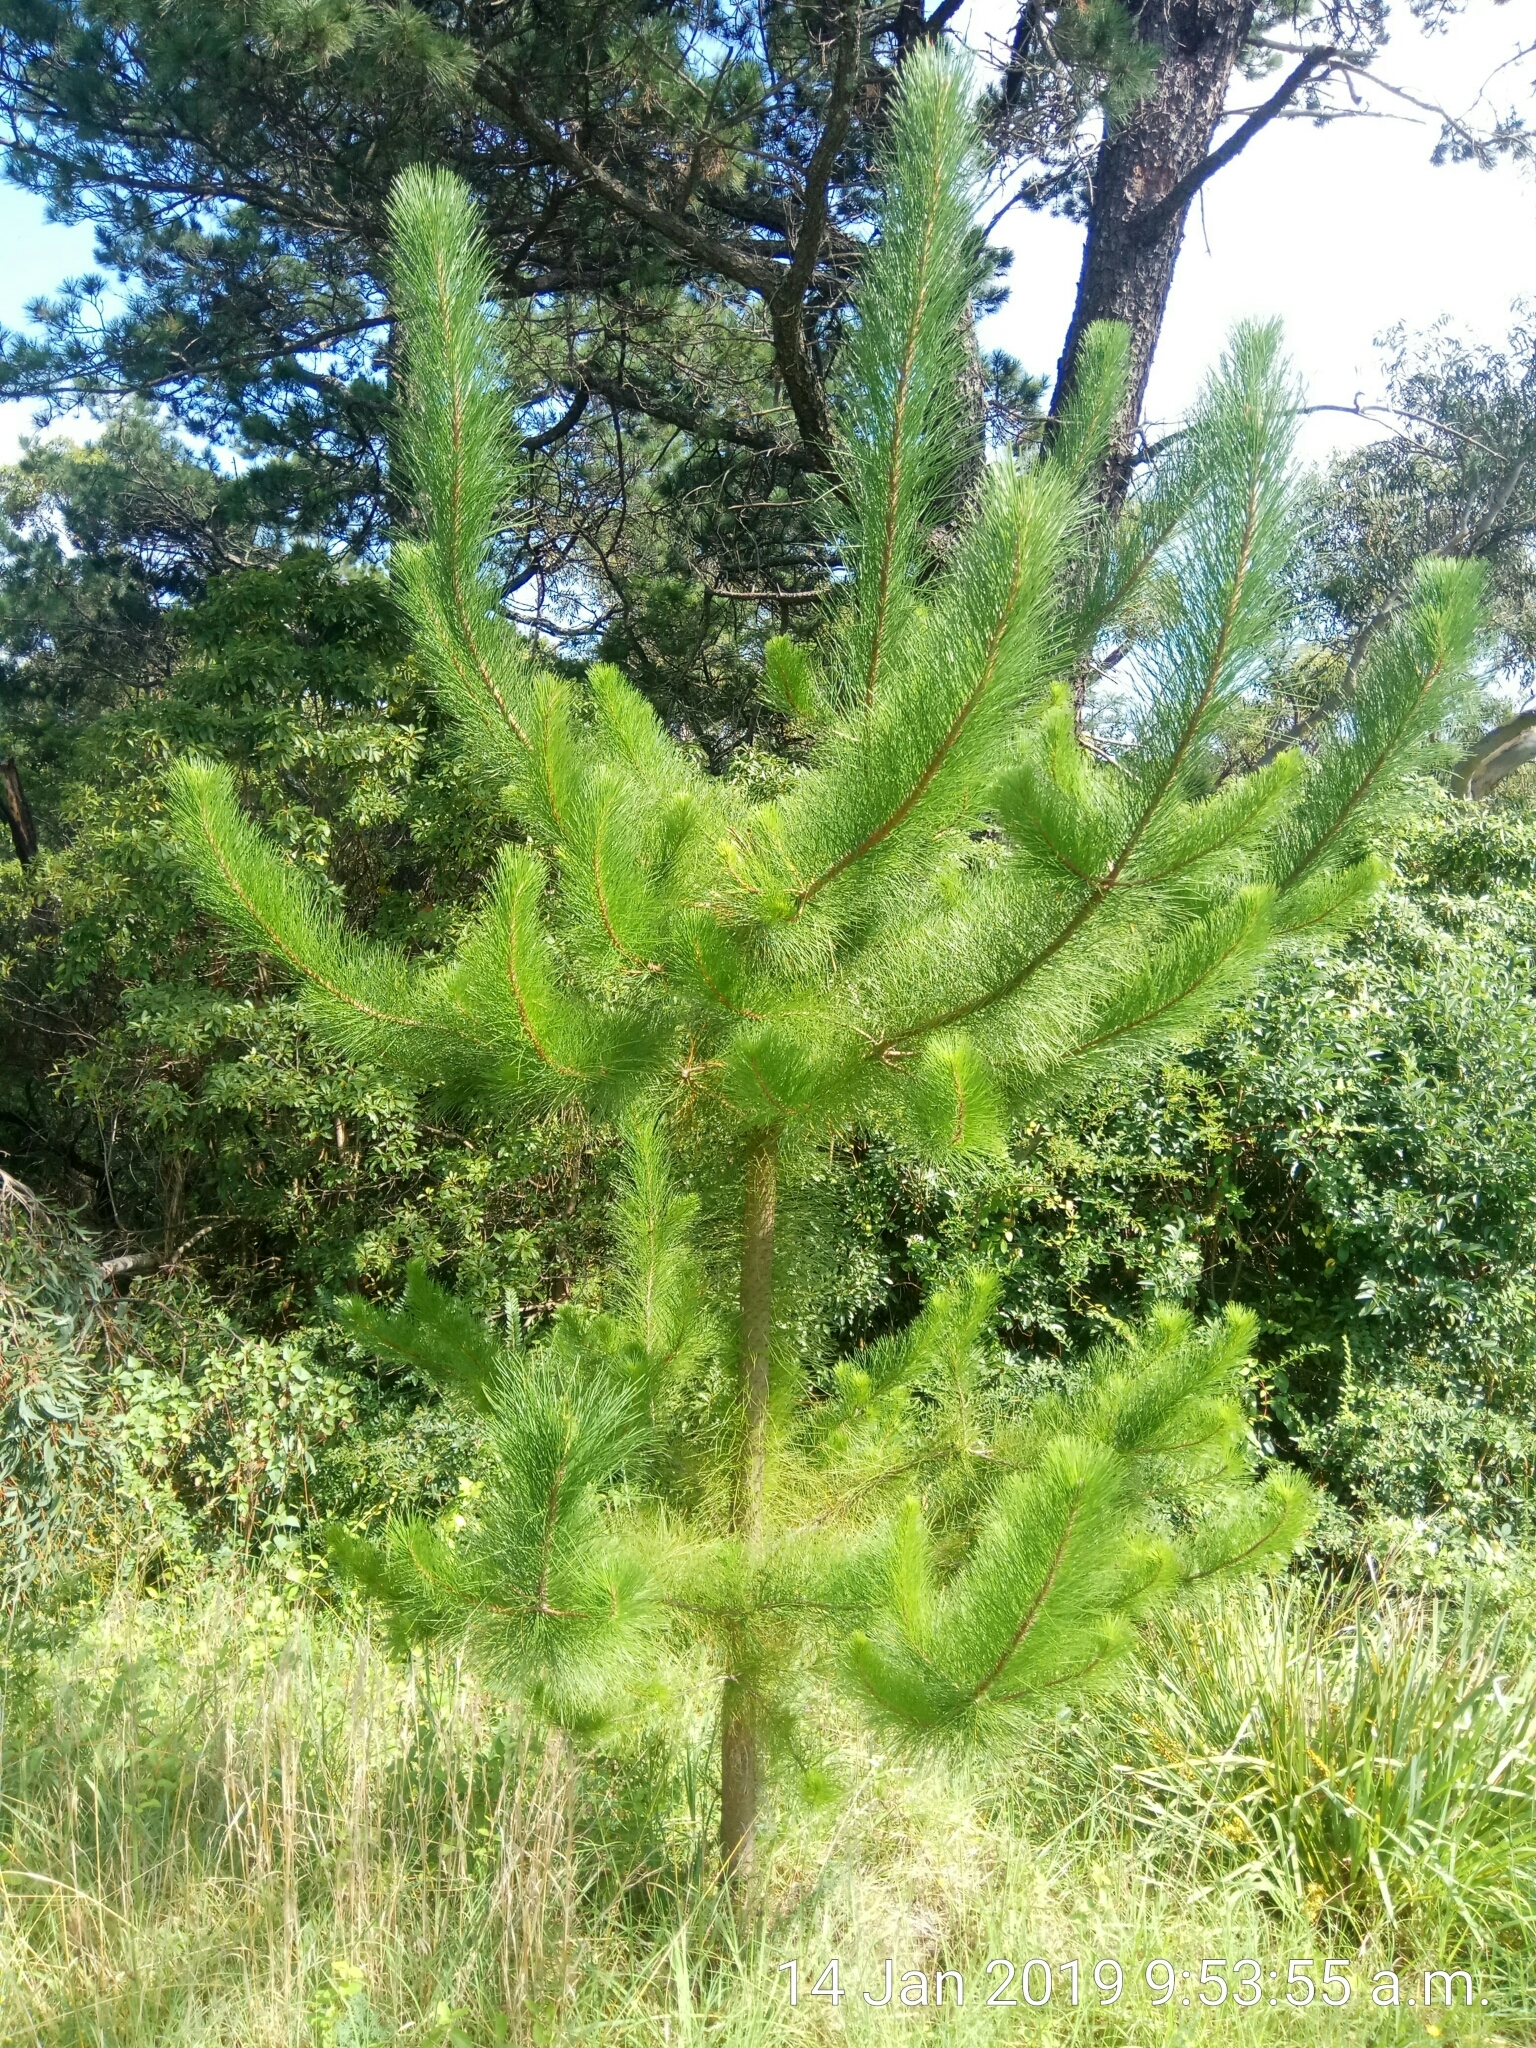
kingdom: Plantae
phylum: Tracheophyta
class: Pinopsida
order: Pinales
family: Pinaceae
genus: Pinus
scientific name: Pinus radiata
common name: Monterey pine
